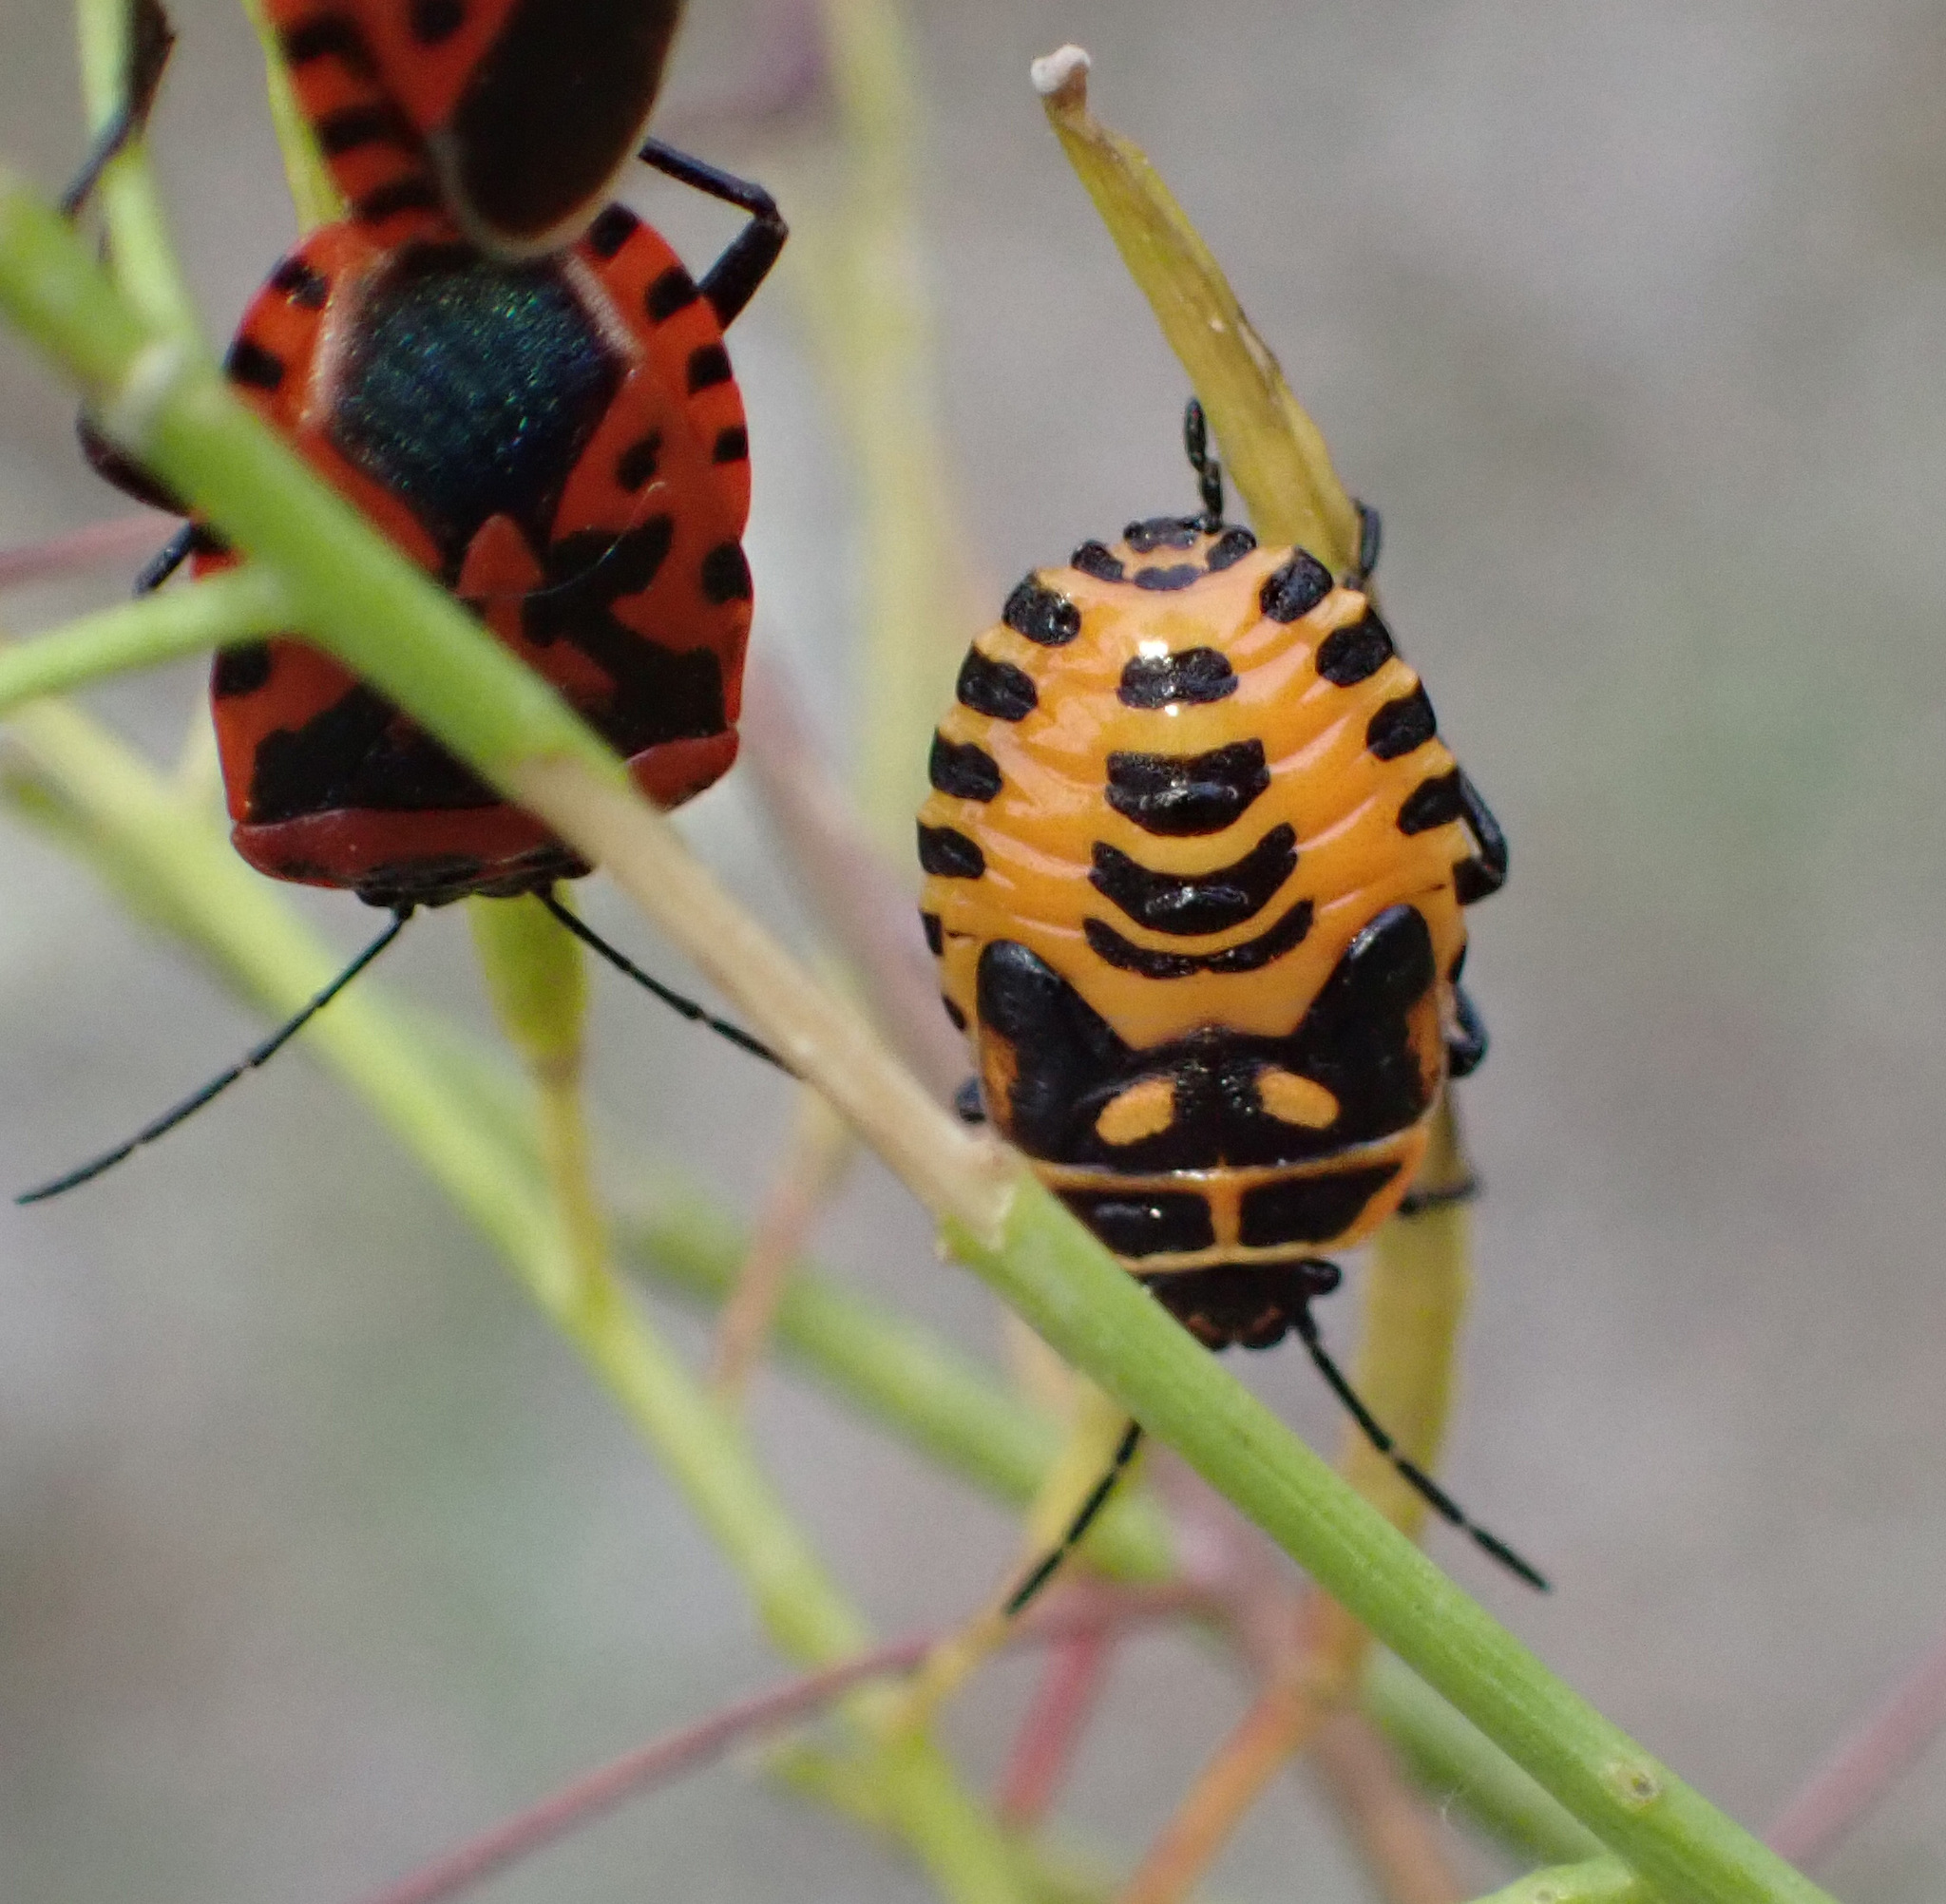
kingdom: Animalia
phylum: Arthropoda
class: Insecta
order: Hemiptera
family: Pentatomidae
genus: Eurydema
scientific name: Eurydema ventralis
